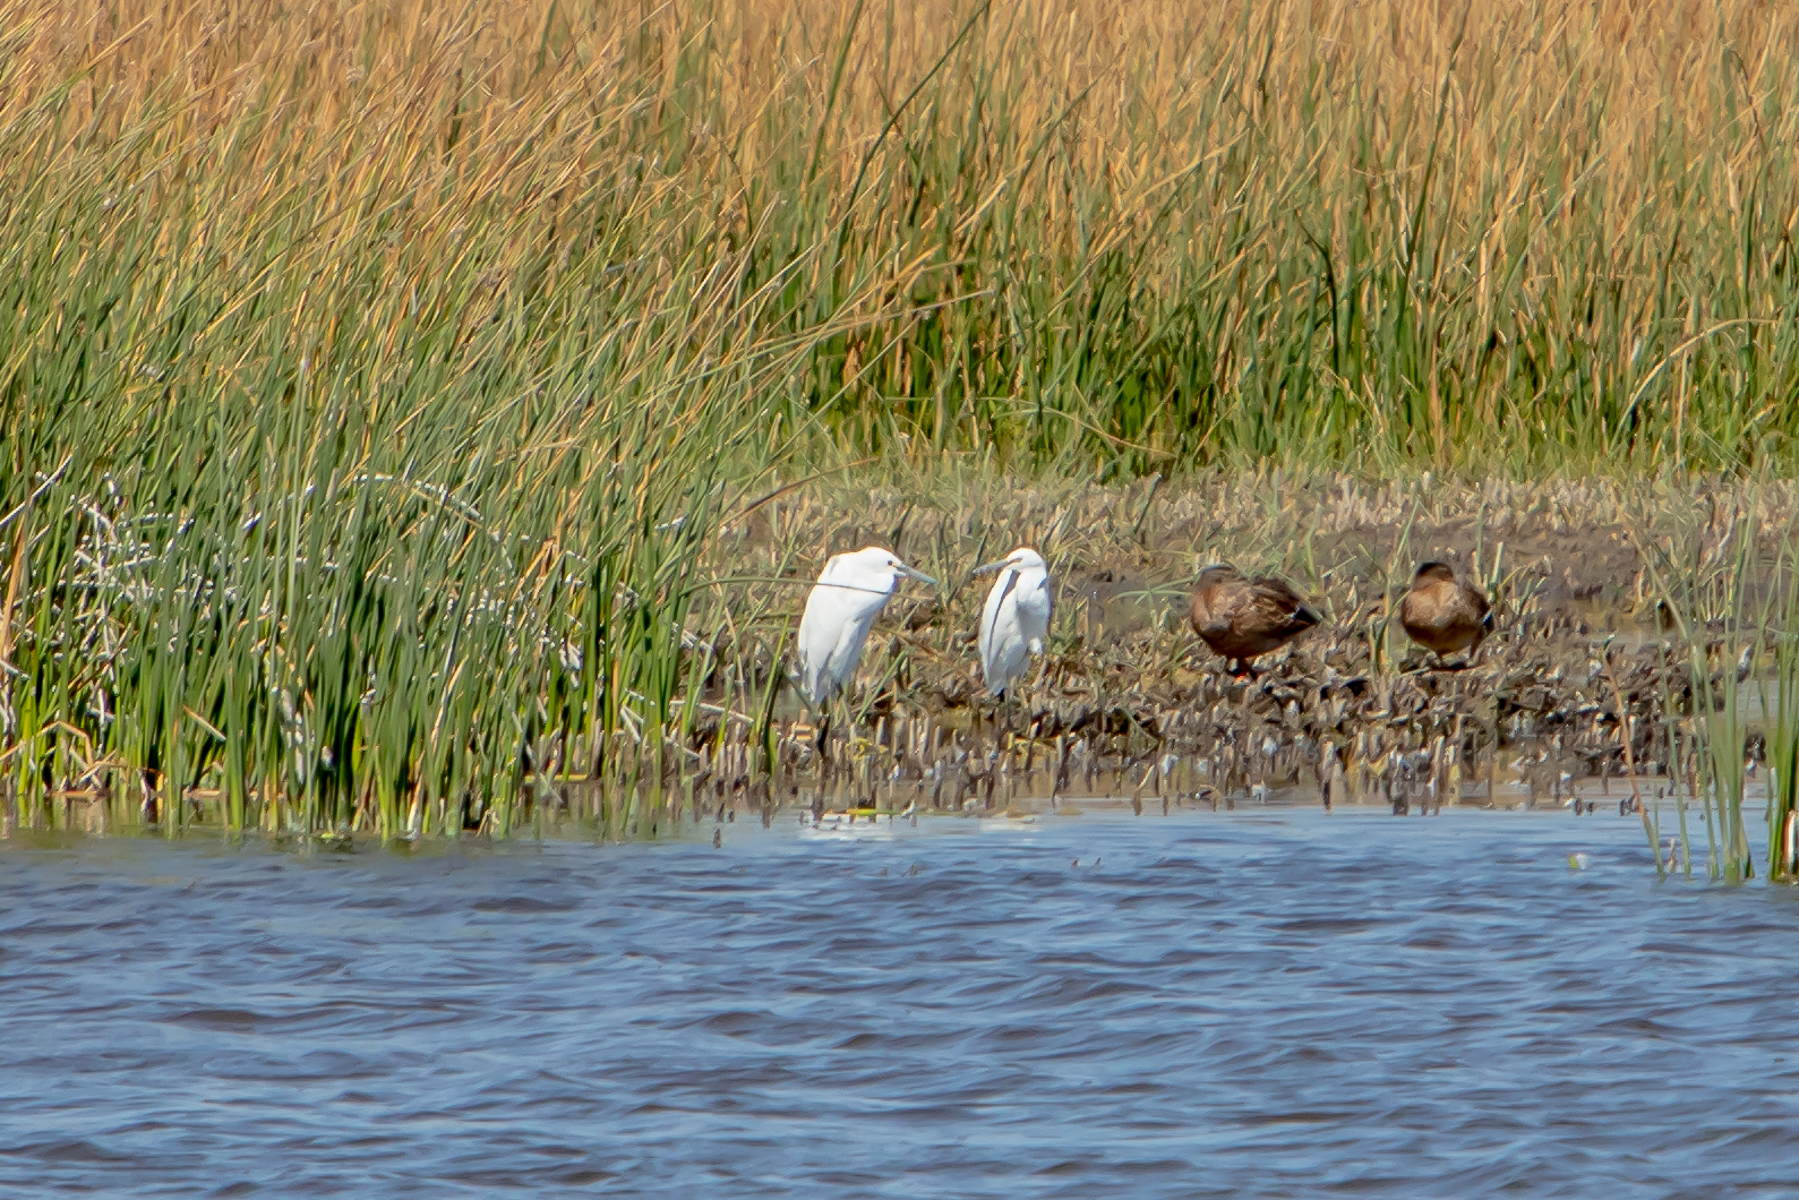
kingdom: Animalia
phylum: Chordata
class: Aves
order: Anseriformes
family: Anatidae
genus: Anas
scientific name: Anas crecca
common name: Eurasian teal
